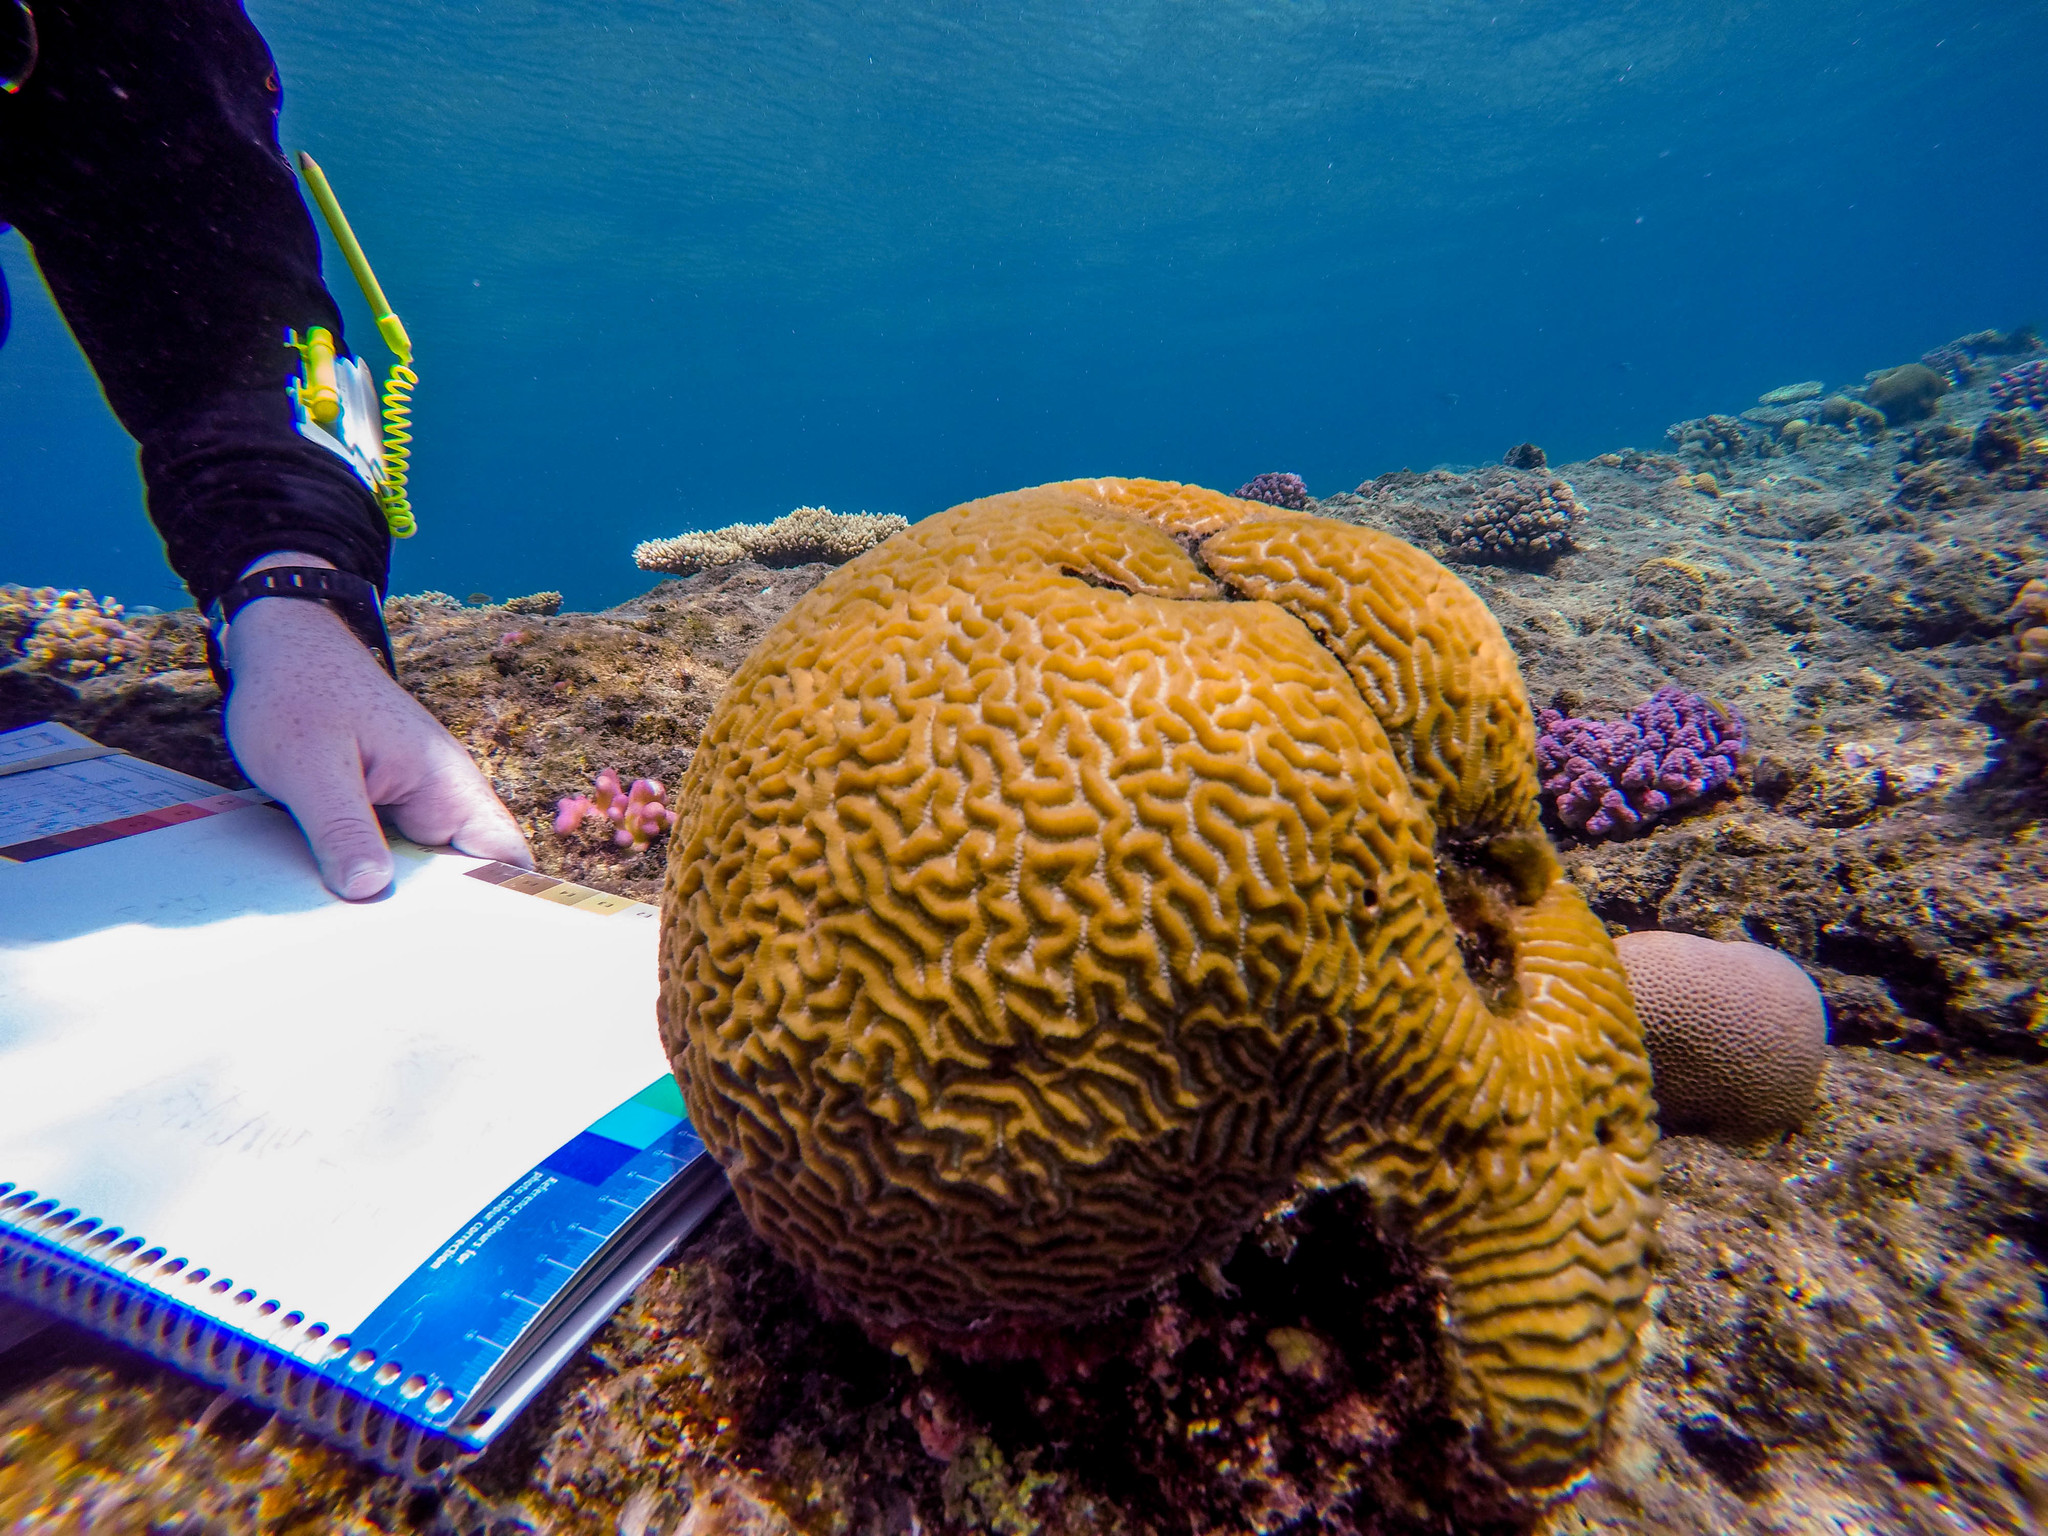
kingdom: Animalia
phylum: Cnidaria
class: Anthozoa
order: Scleractinia
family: Merulinidae
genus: Platygyra
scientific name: Platygyra daedalea
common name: Lesser valley coral
